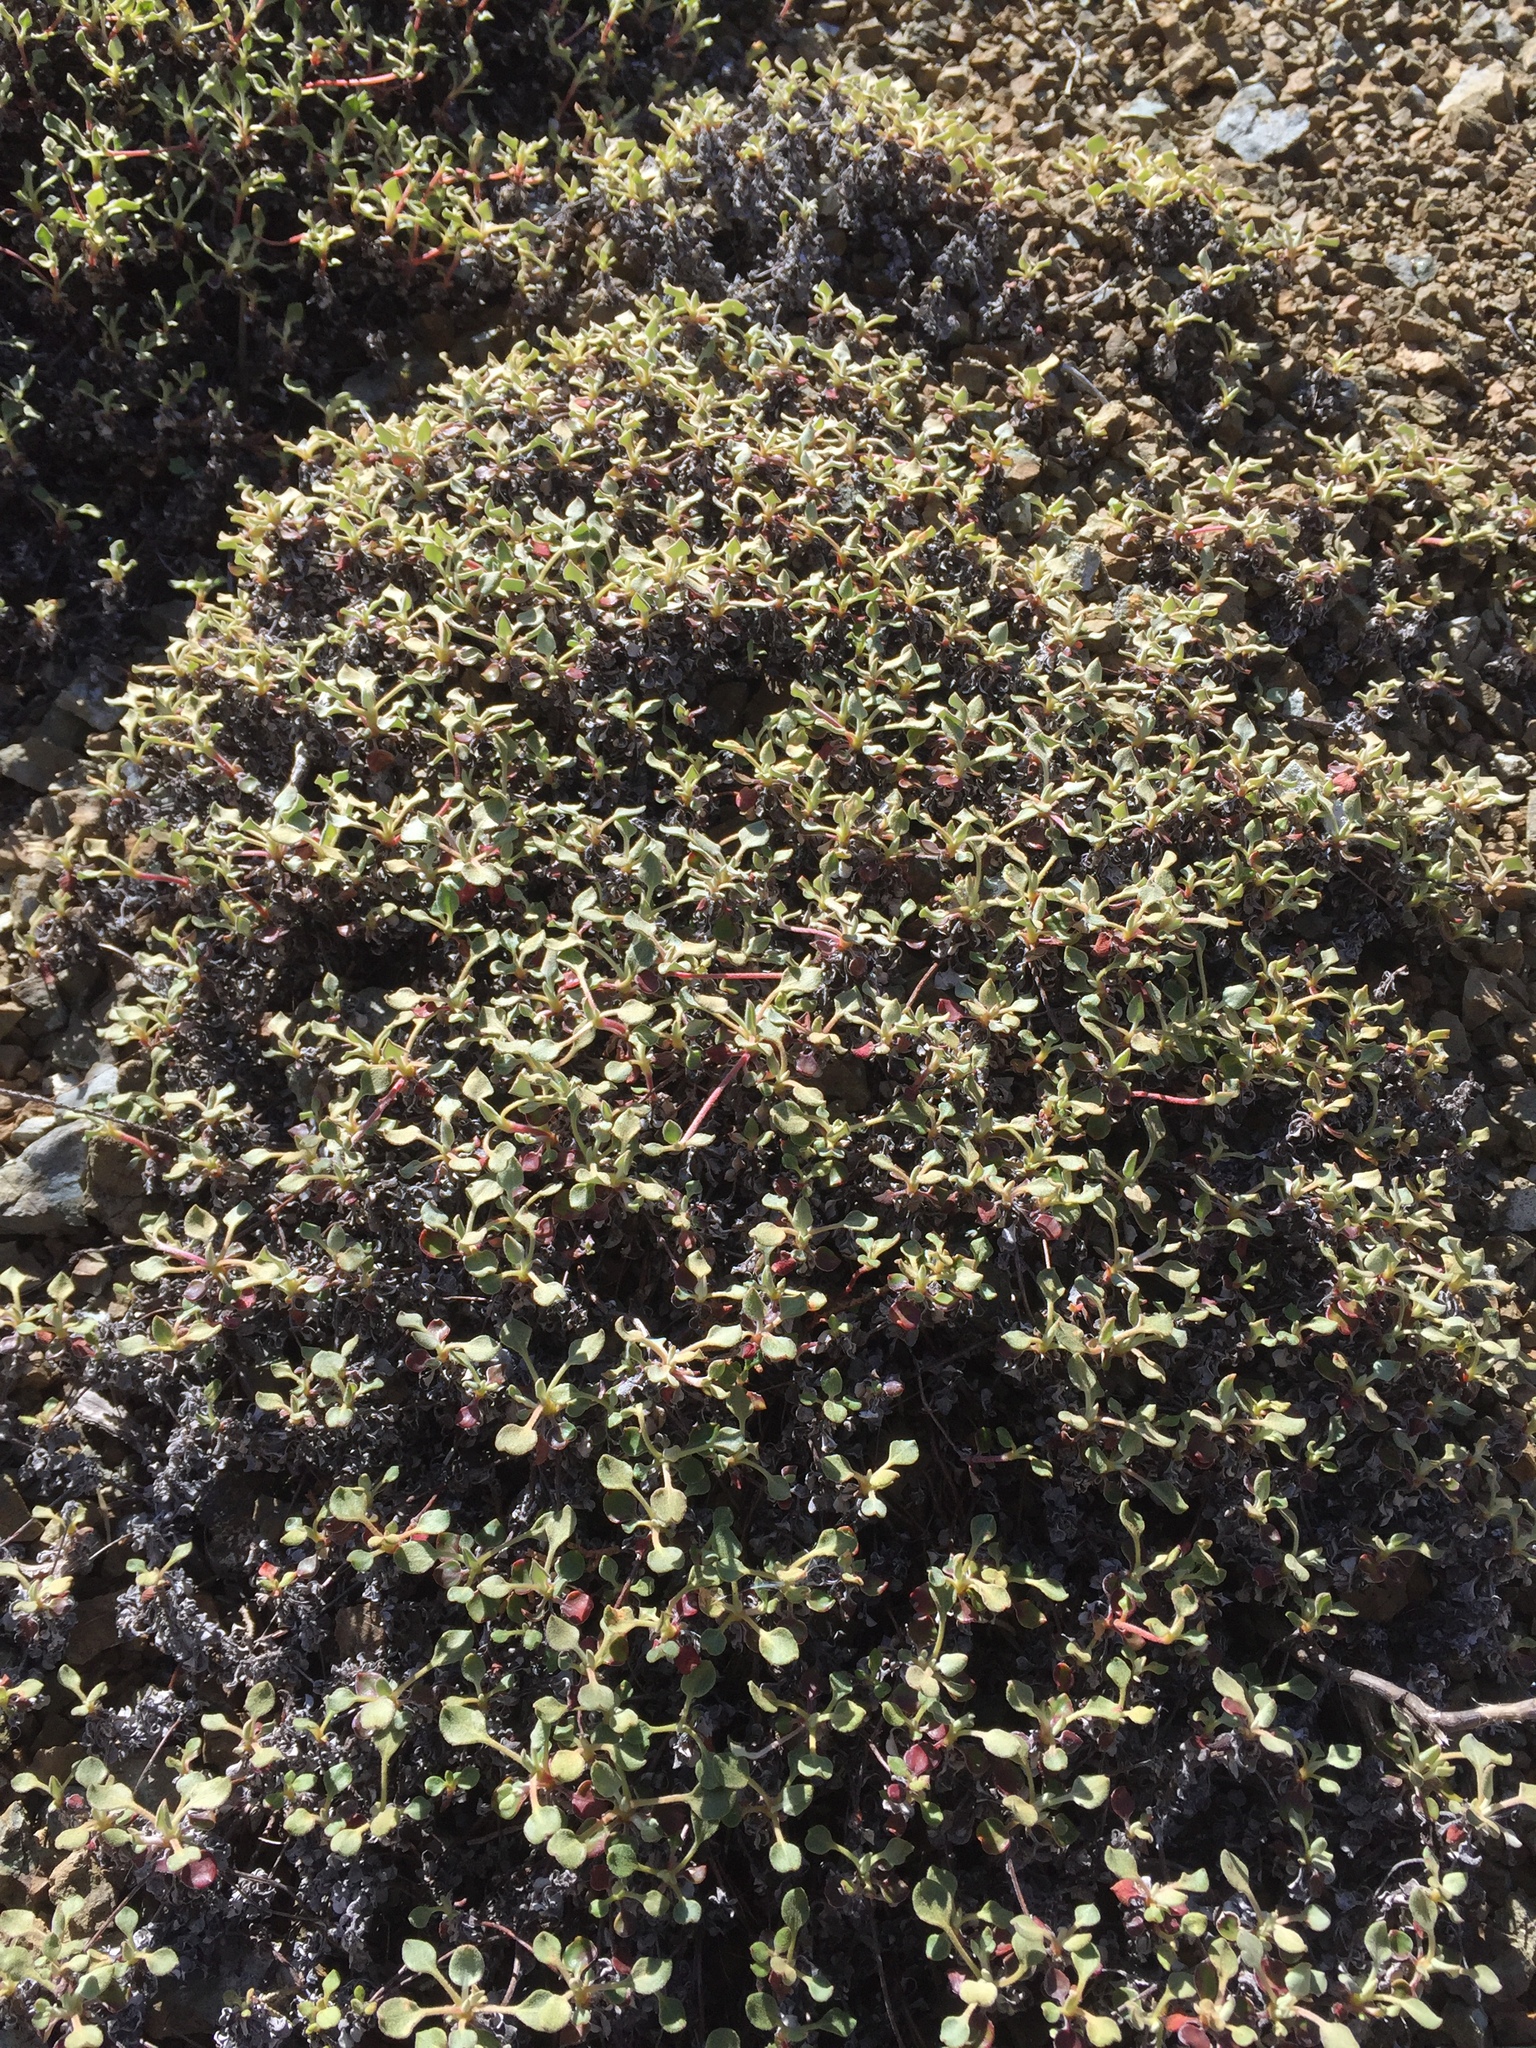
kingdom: Plantae
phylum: Tracheophyta
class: Magnoliopsida
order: Caryophyllales
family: Polygonaceae
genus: Eriogonum
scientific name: Eriogonum cedrorum
